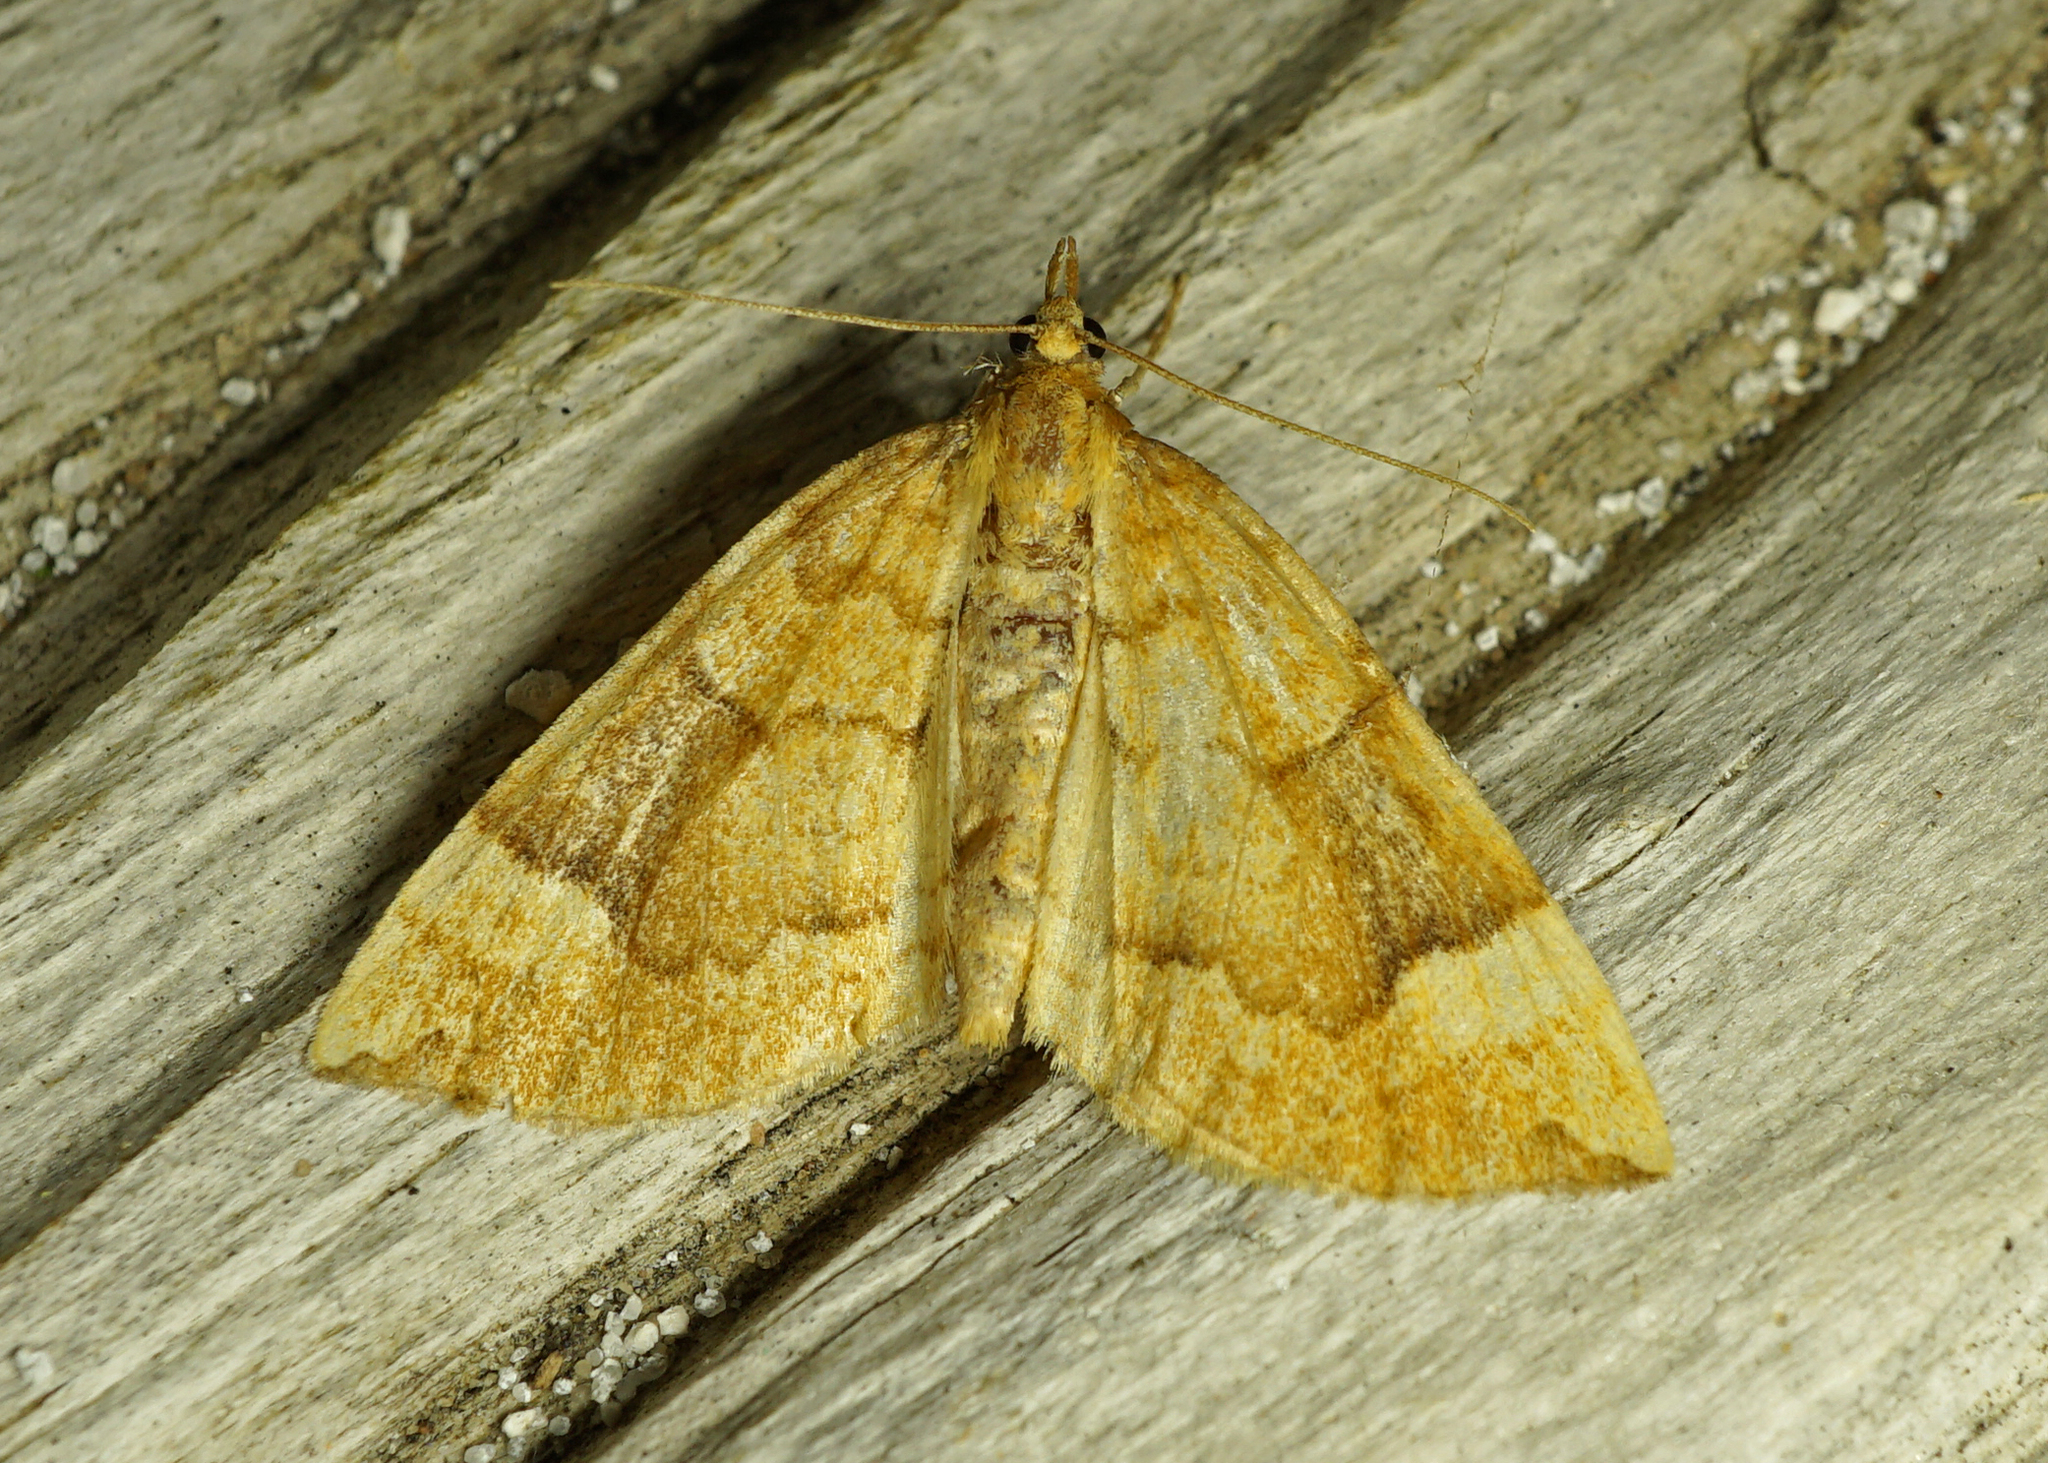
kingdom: Animalia
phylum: Arthropoda
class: Insecta
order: Lepidoptera
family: Geometridae
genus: Eulithis
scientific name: Eulithis populata
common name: Northern spinach
